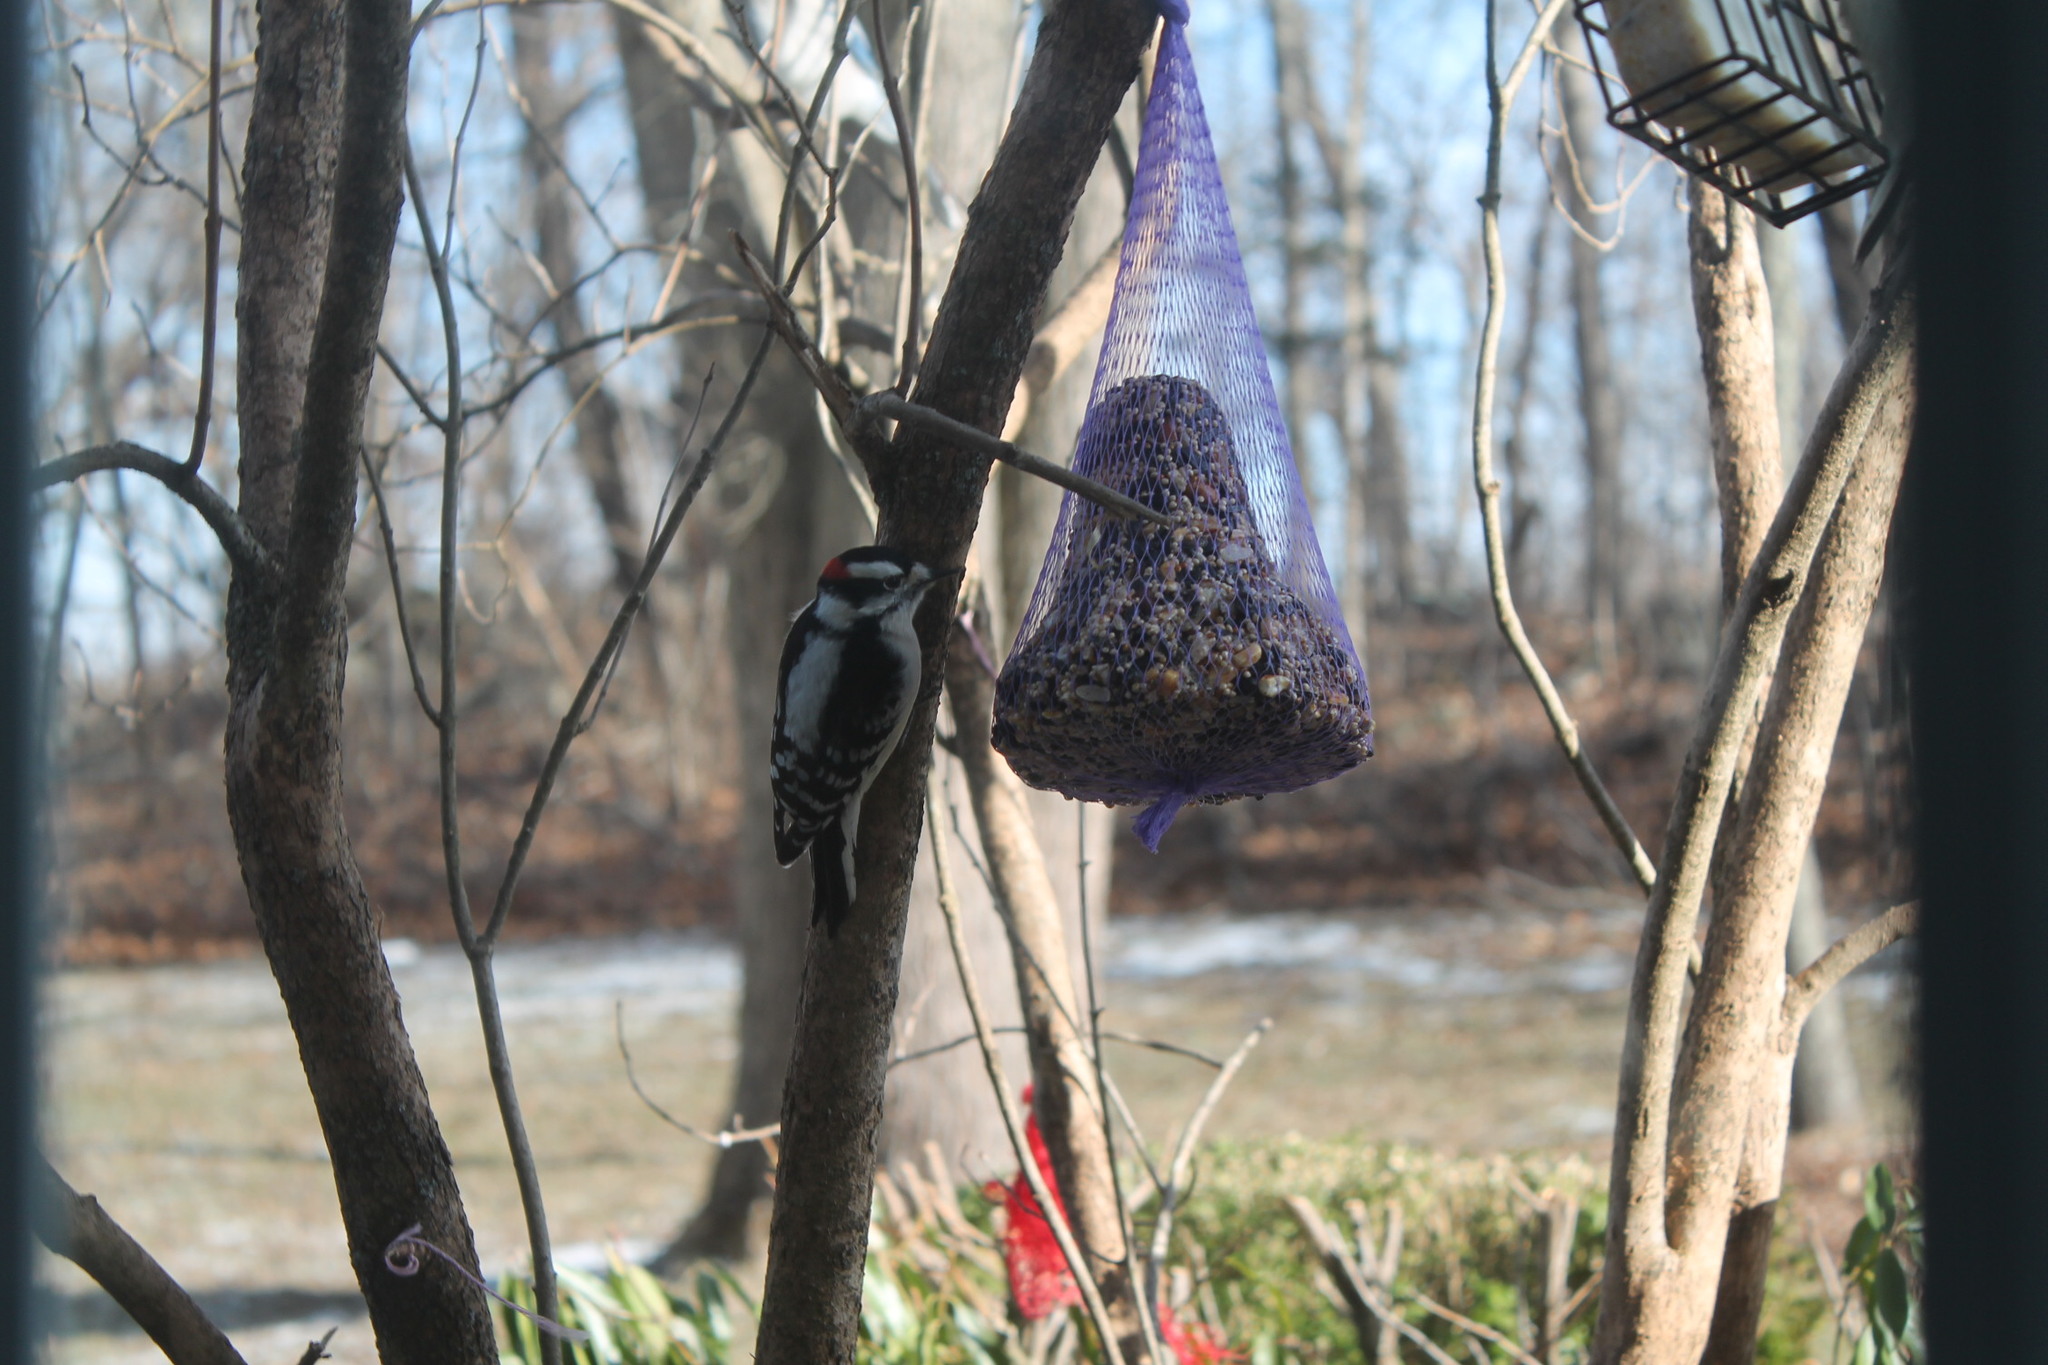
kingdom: Animalia
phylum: Chordata
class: Aves
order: Piciformes
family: Picidae
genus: Dryobates
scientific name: Dryobates pubescens
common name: Downy woodpecker
